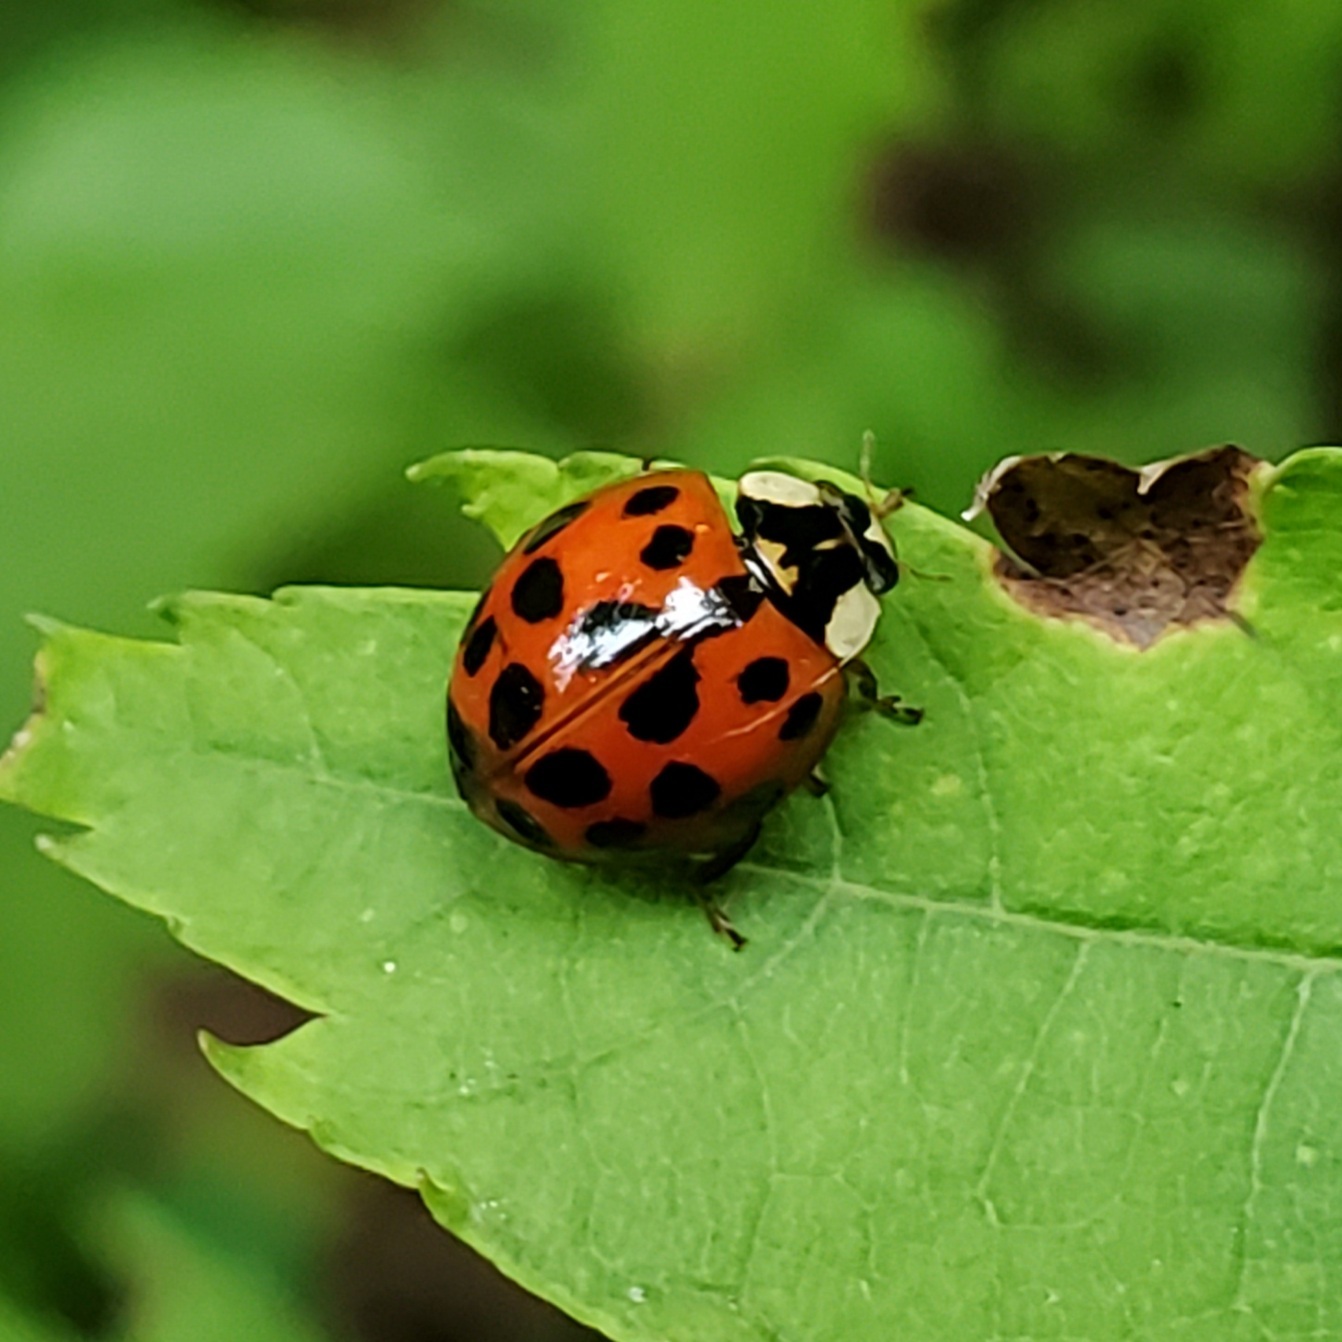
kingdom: Animalia
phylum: Arthropoda
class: Insecta
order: Coleoptera
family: Coccinellidae
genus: Harmonia
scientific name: Harmonia axyridis
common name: Harlequin ladybird
